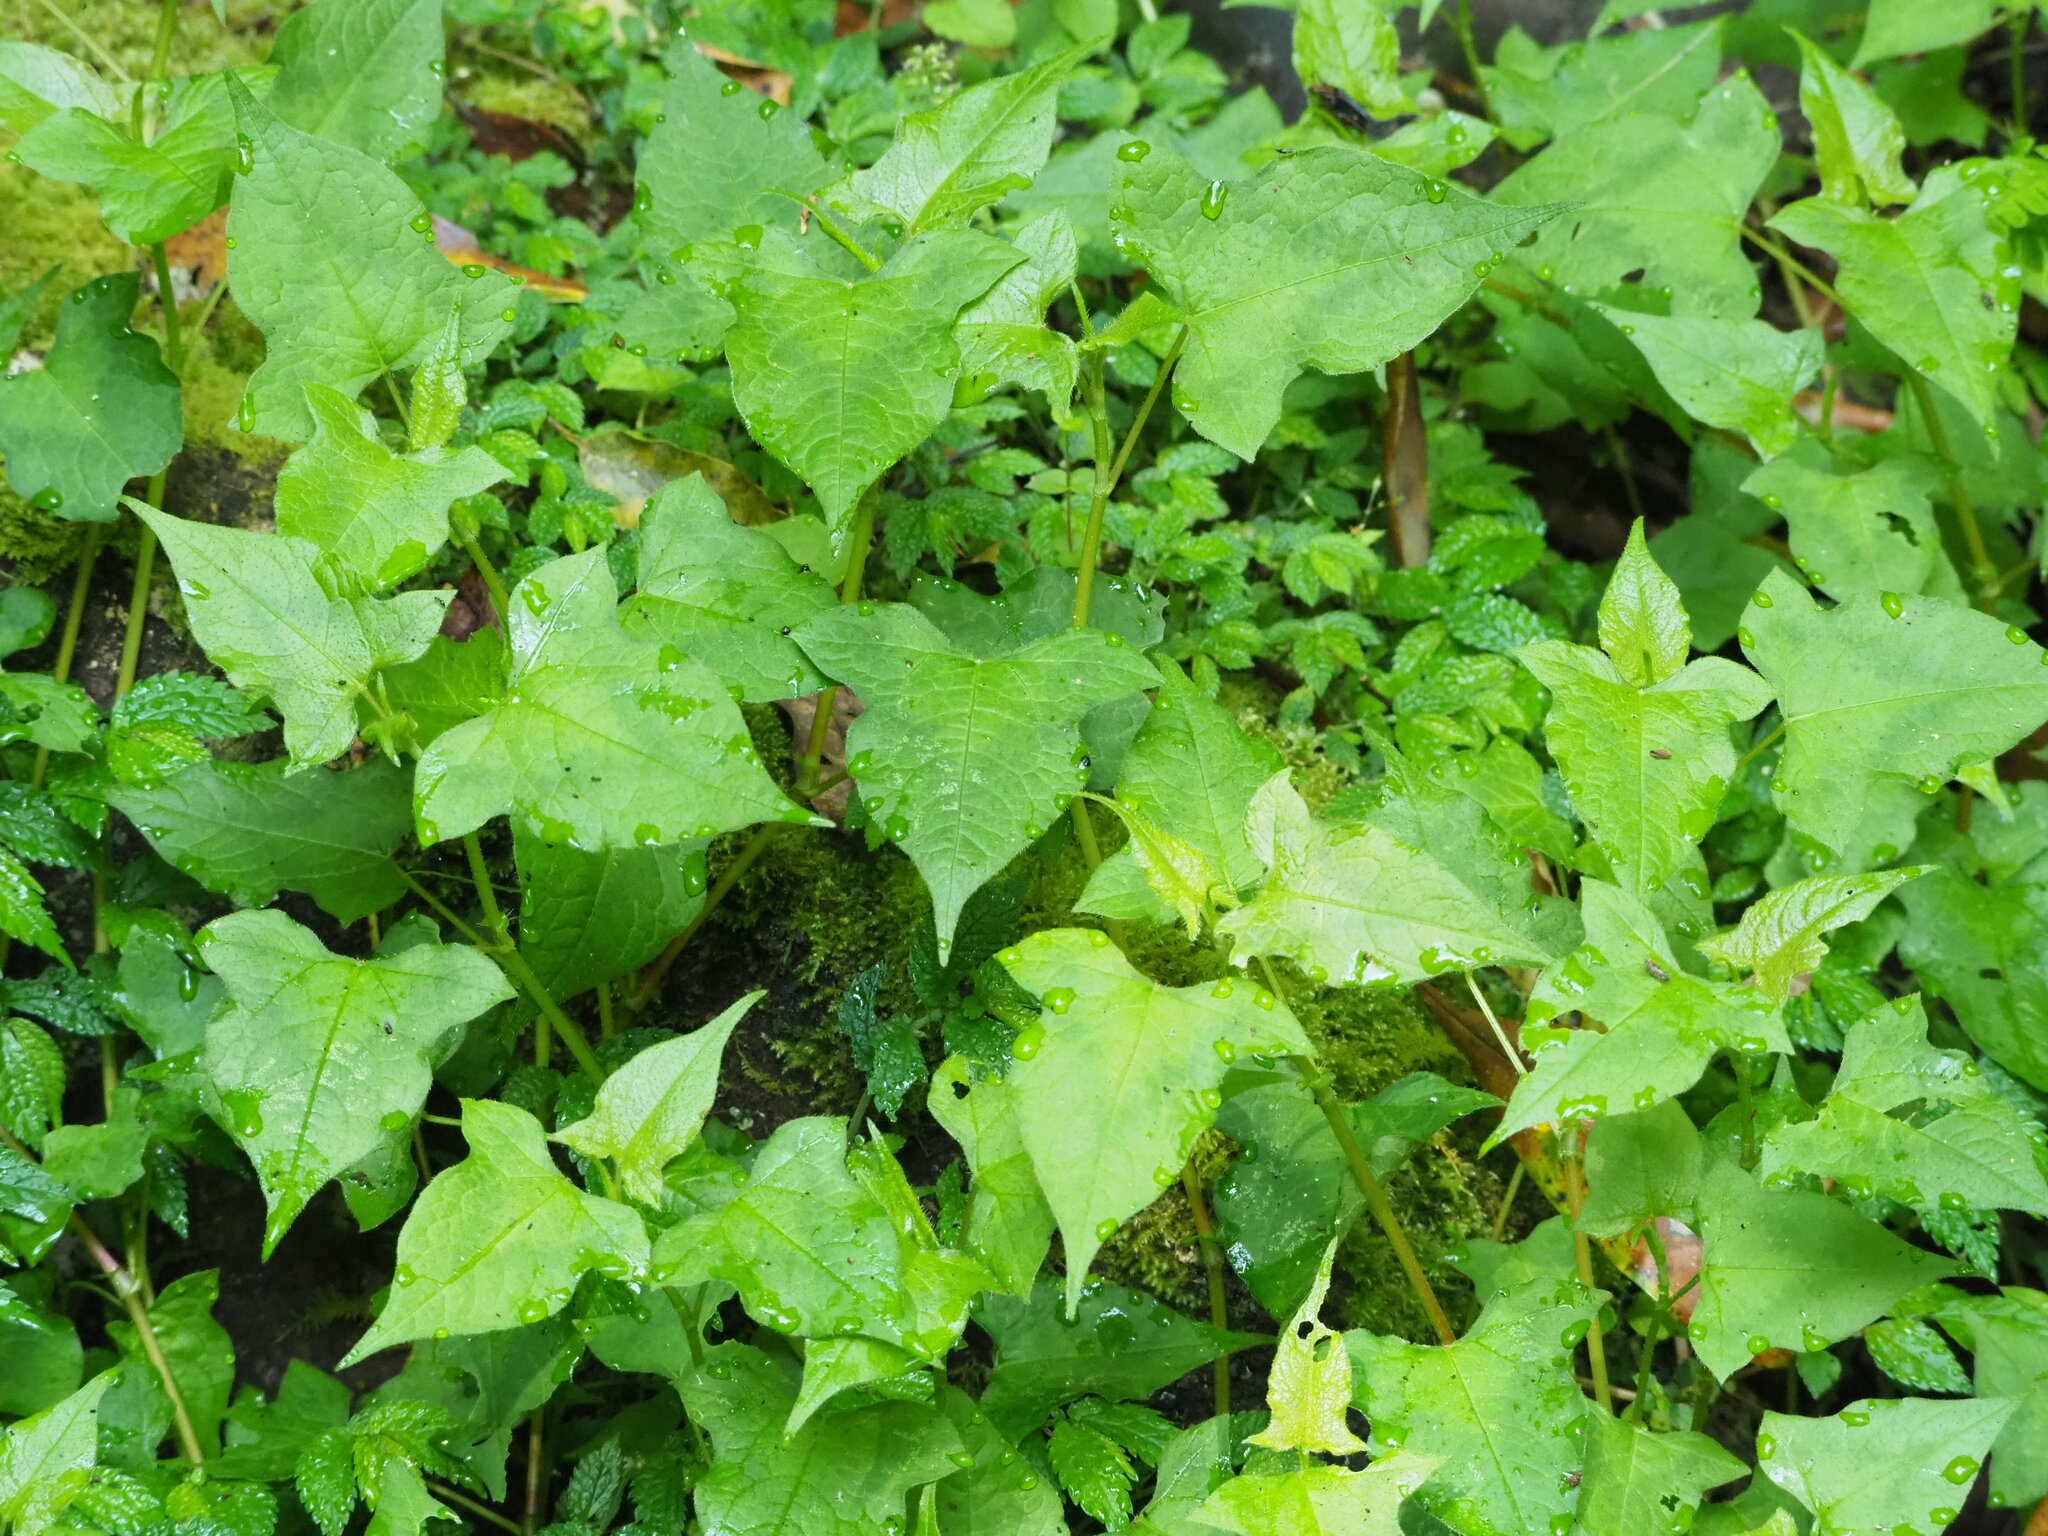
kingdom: Plantae
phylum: Tracheophyta
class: Magnoliopsida
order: Caryophyllales
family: Polygonaceae
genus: Persicaria
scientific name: Persicaria biconvexa
